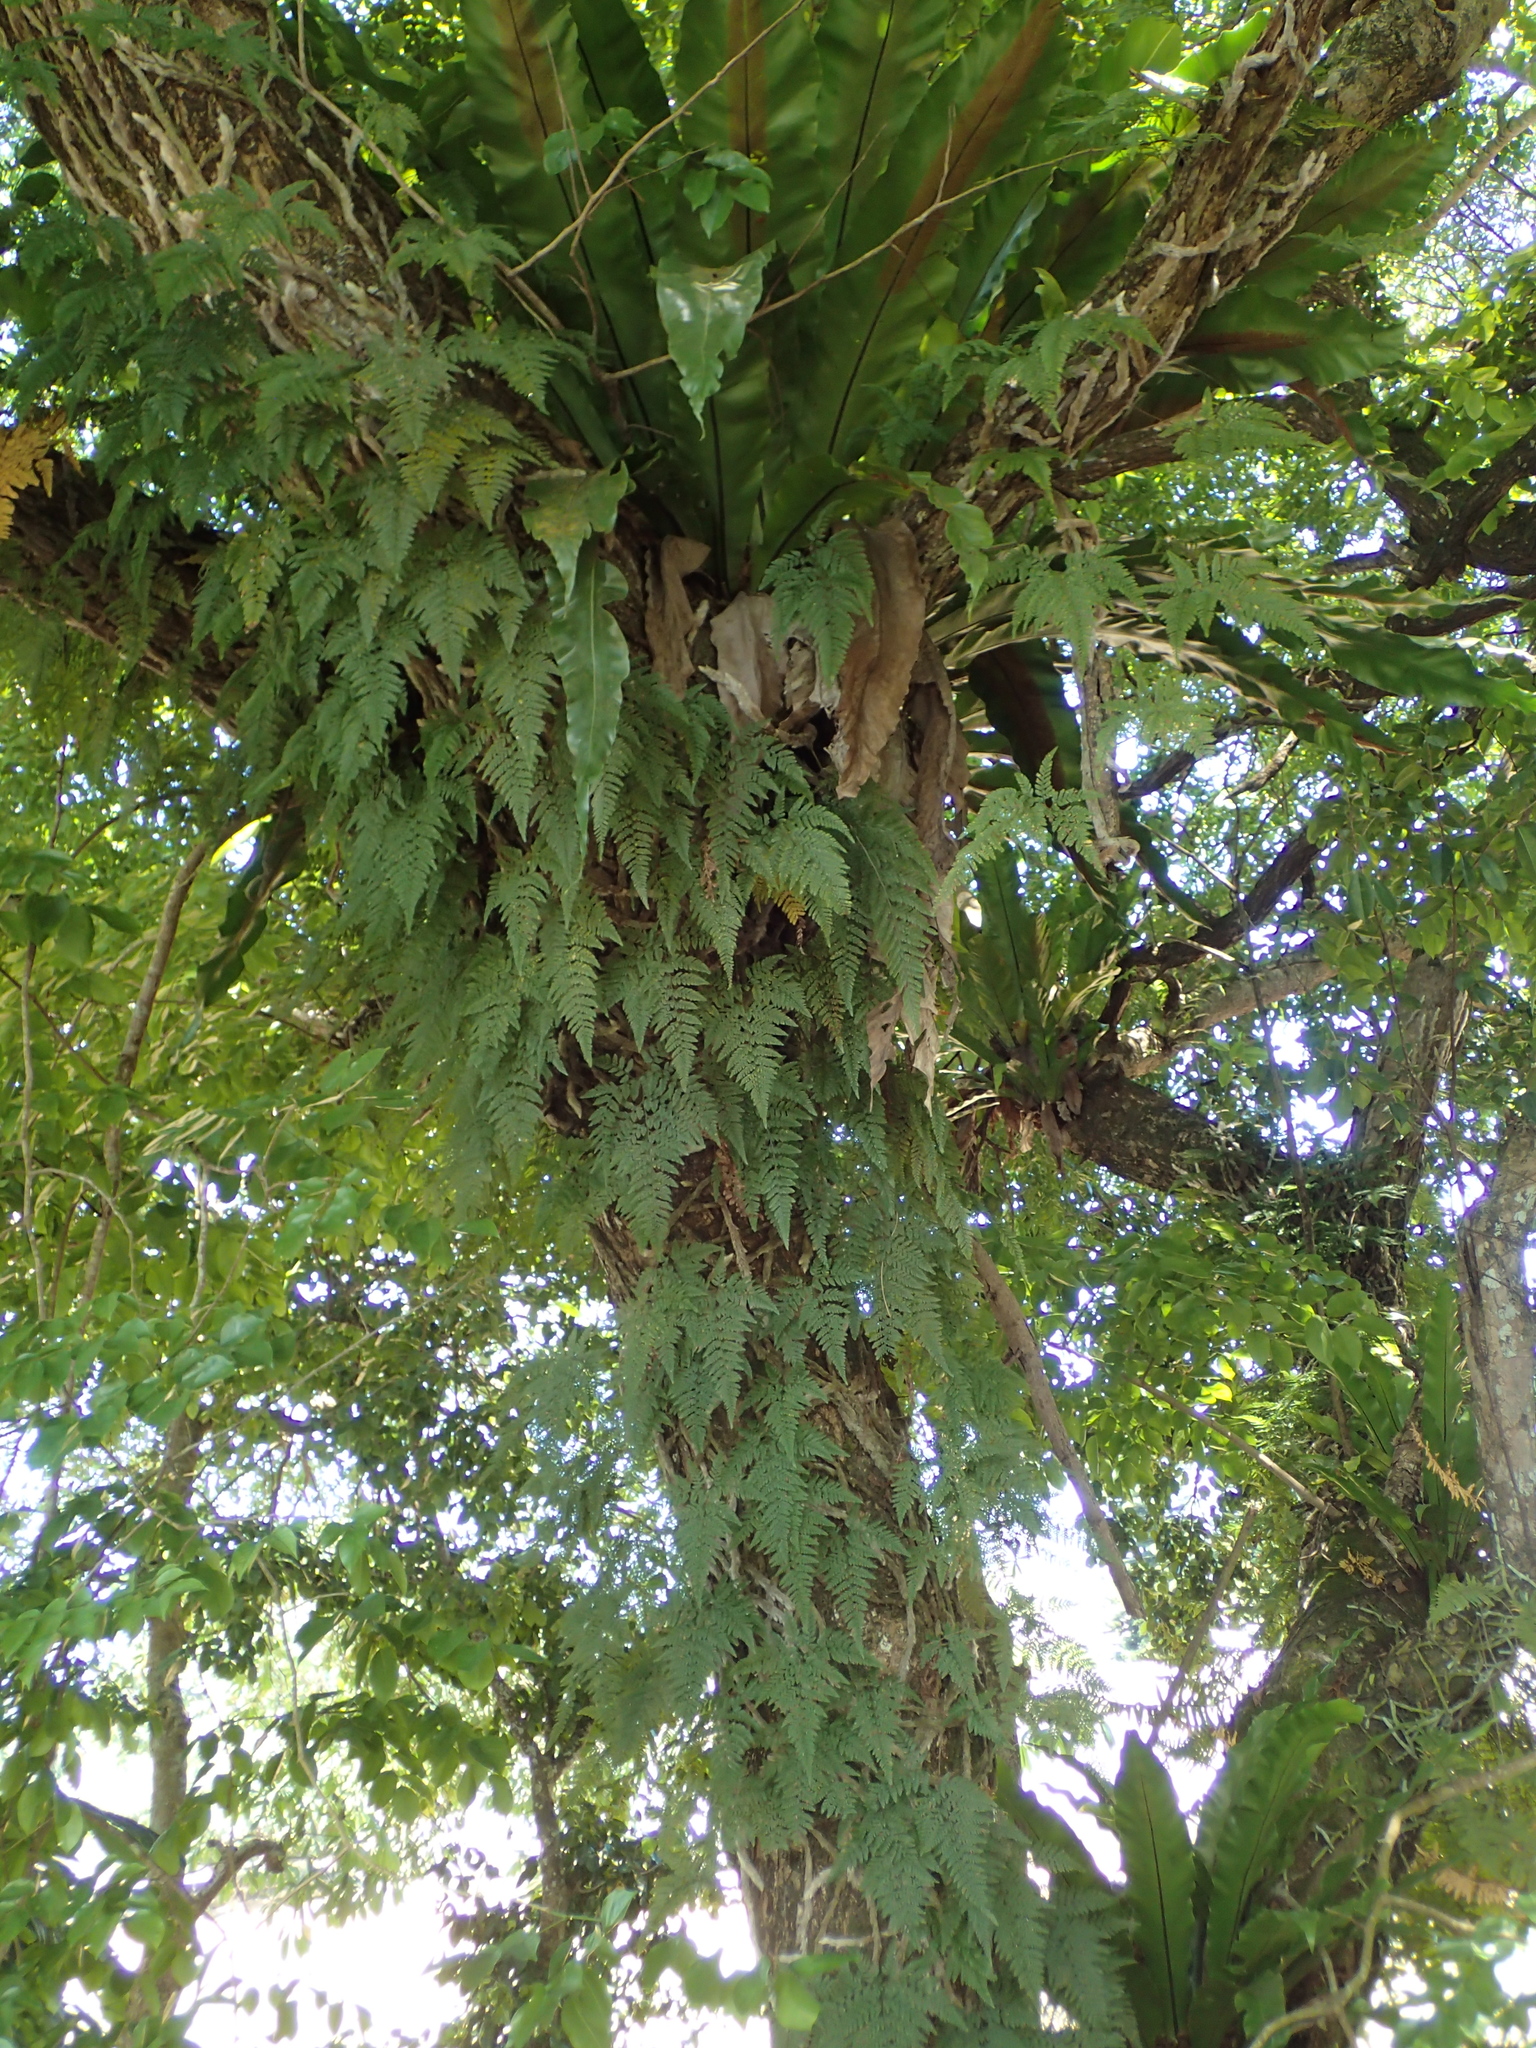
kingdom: Plantae
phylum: Tracheophyta
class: Polypodiopsida
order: Polypodiales
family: Davalliaceae
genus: Davallia
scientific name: Davallia griffithiana
